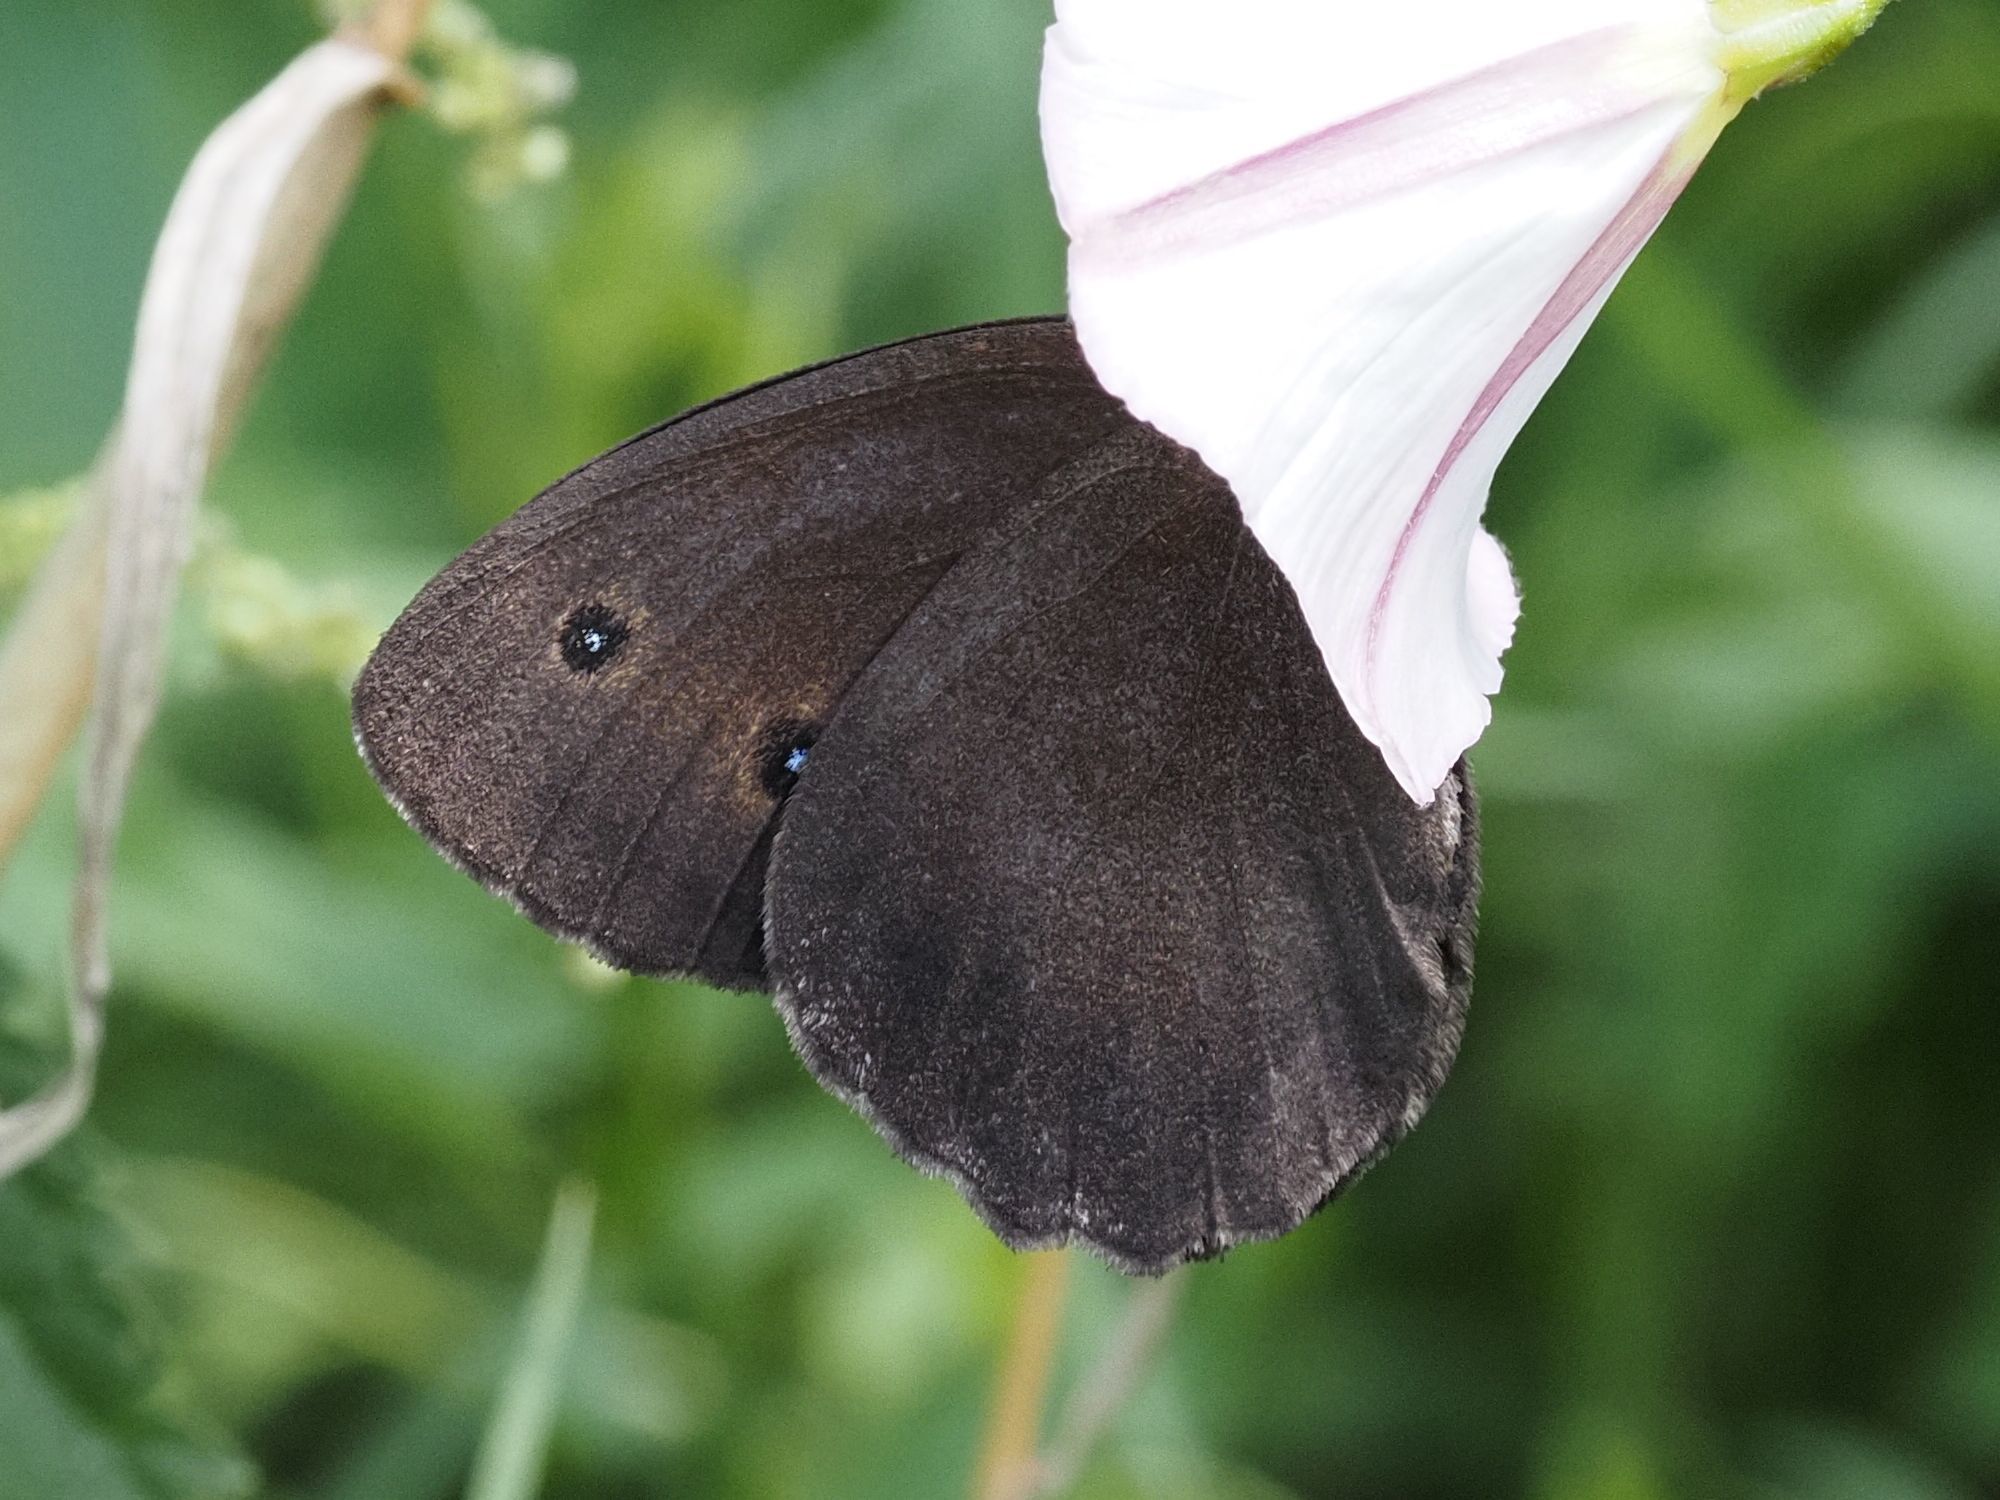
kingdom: Animalia
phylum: Arthropoda
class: Insecta
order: Lepidoptera
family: Nymphalidae
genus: Minois
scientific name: Minois dryas
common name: Dryad
